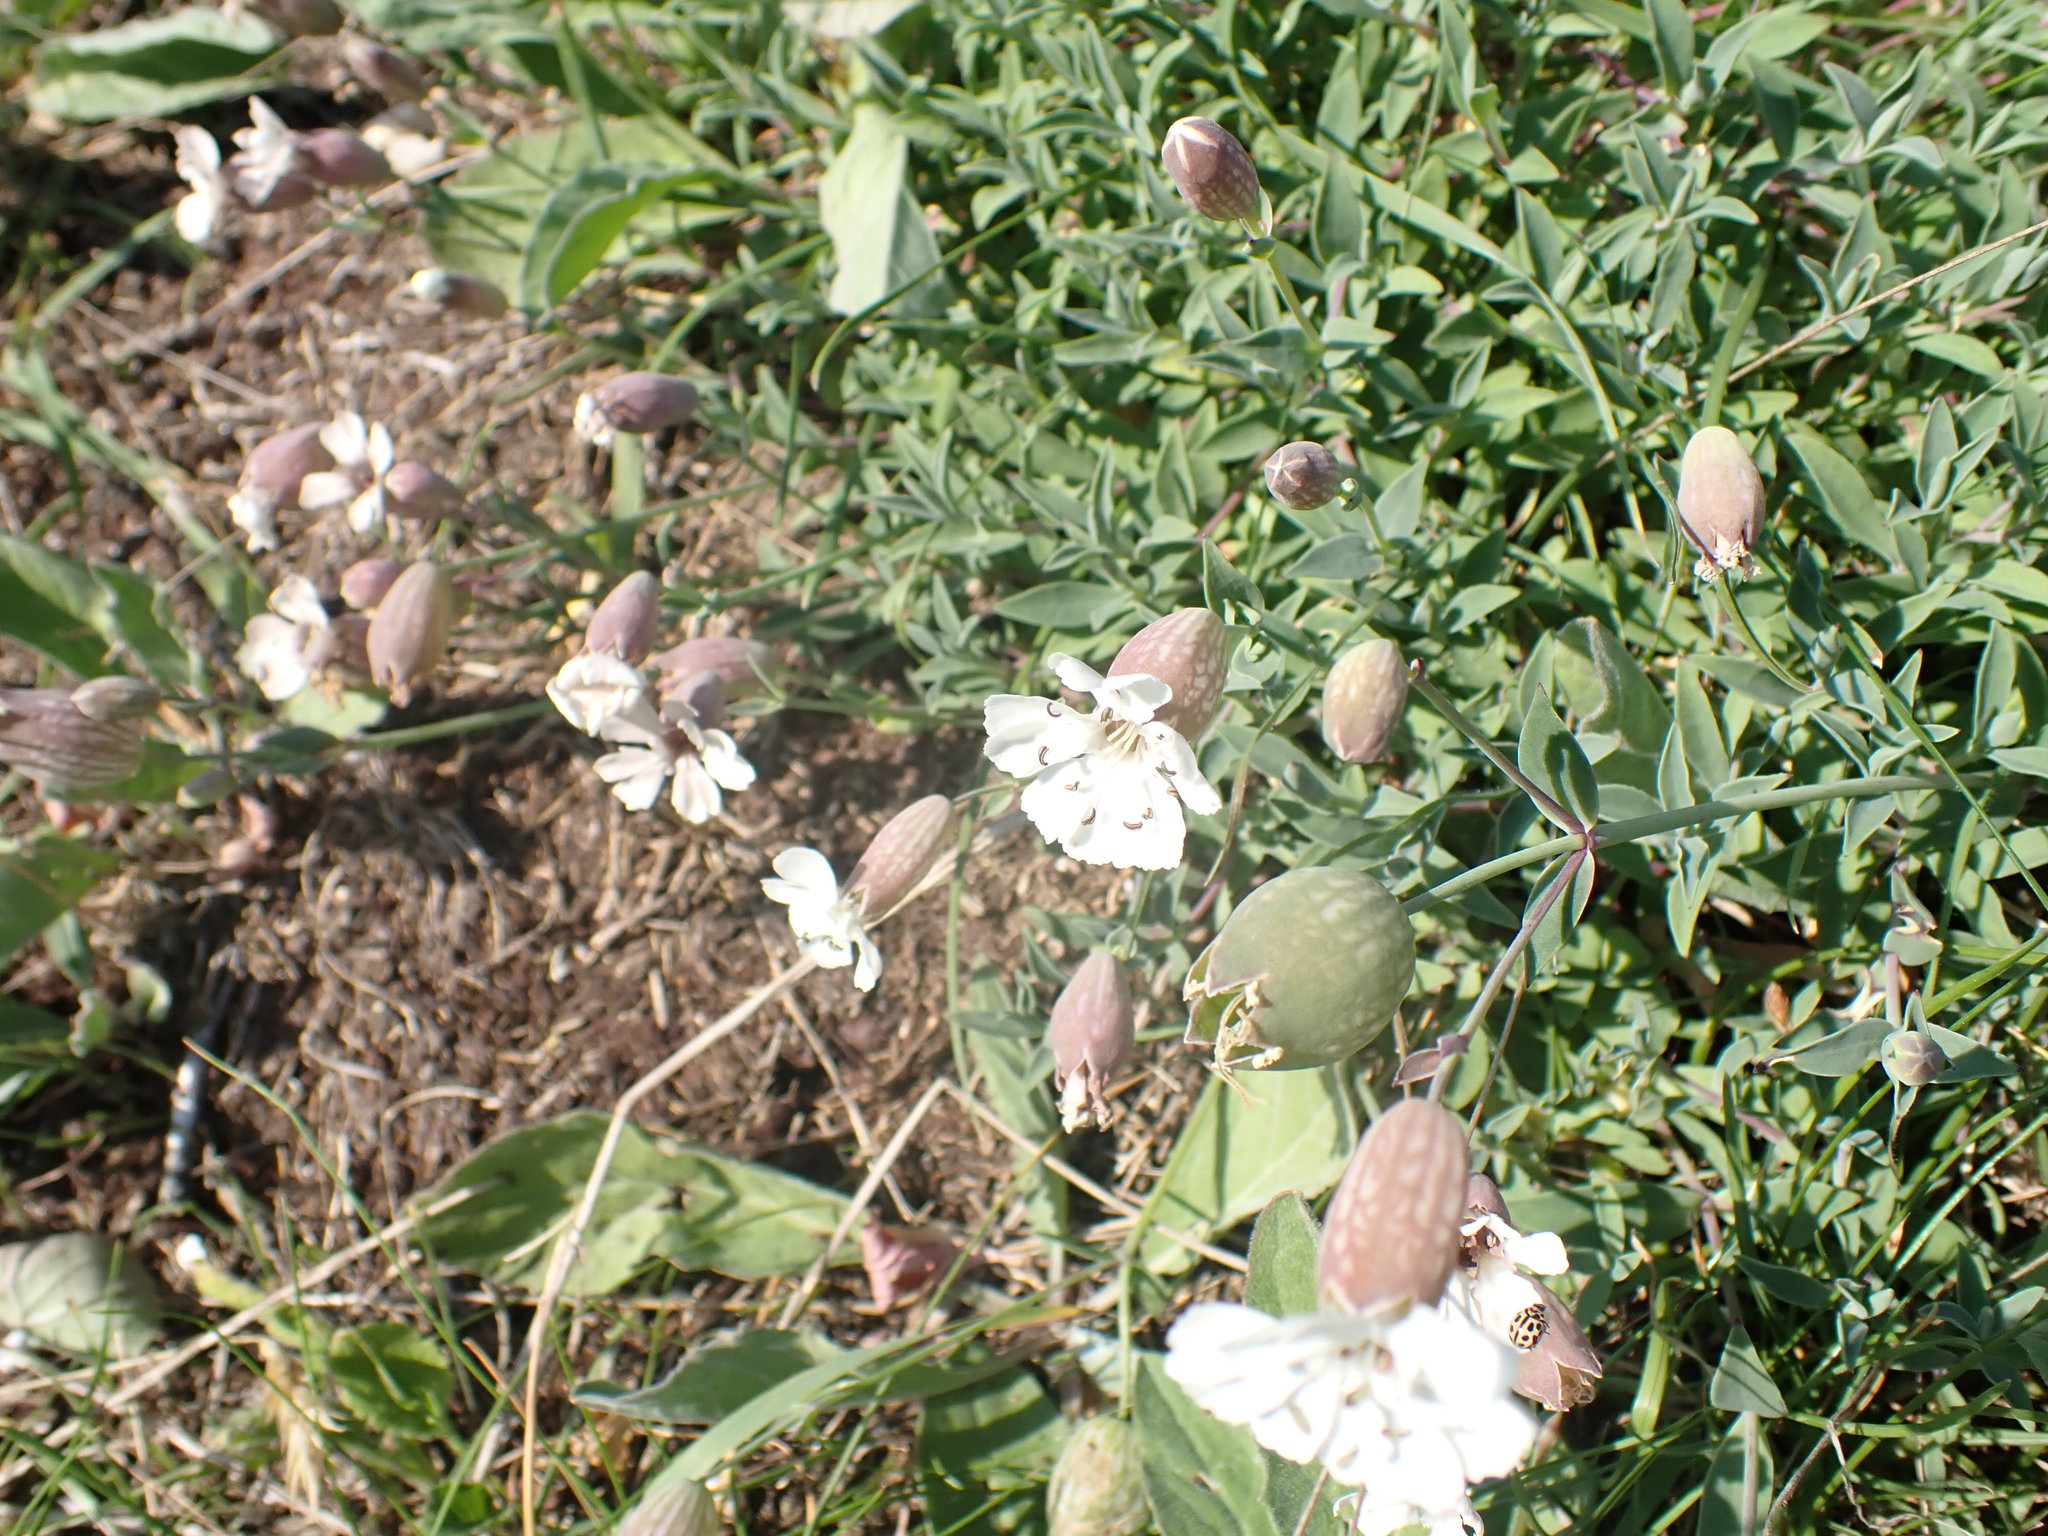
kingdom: Plantae
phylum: Tracheophyta
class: Magnoliopsida
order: Caryophyllales
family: Caryophyllaceae
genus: Silene
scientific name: Silene uniflora
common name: Sea campion
